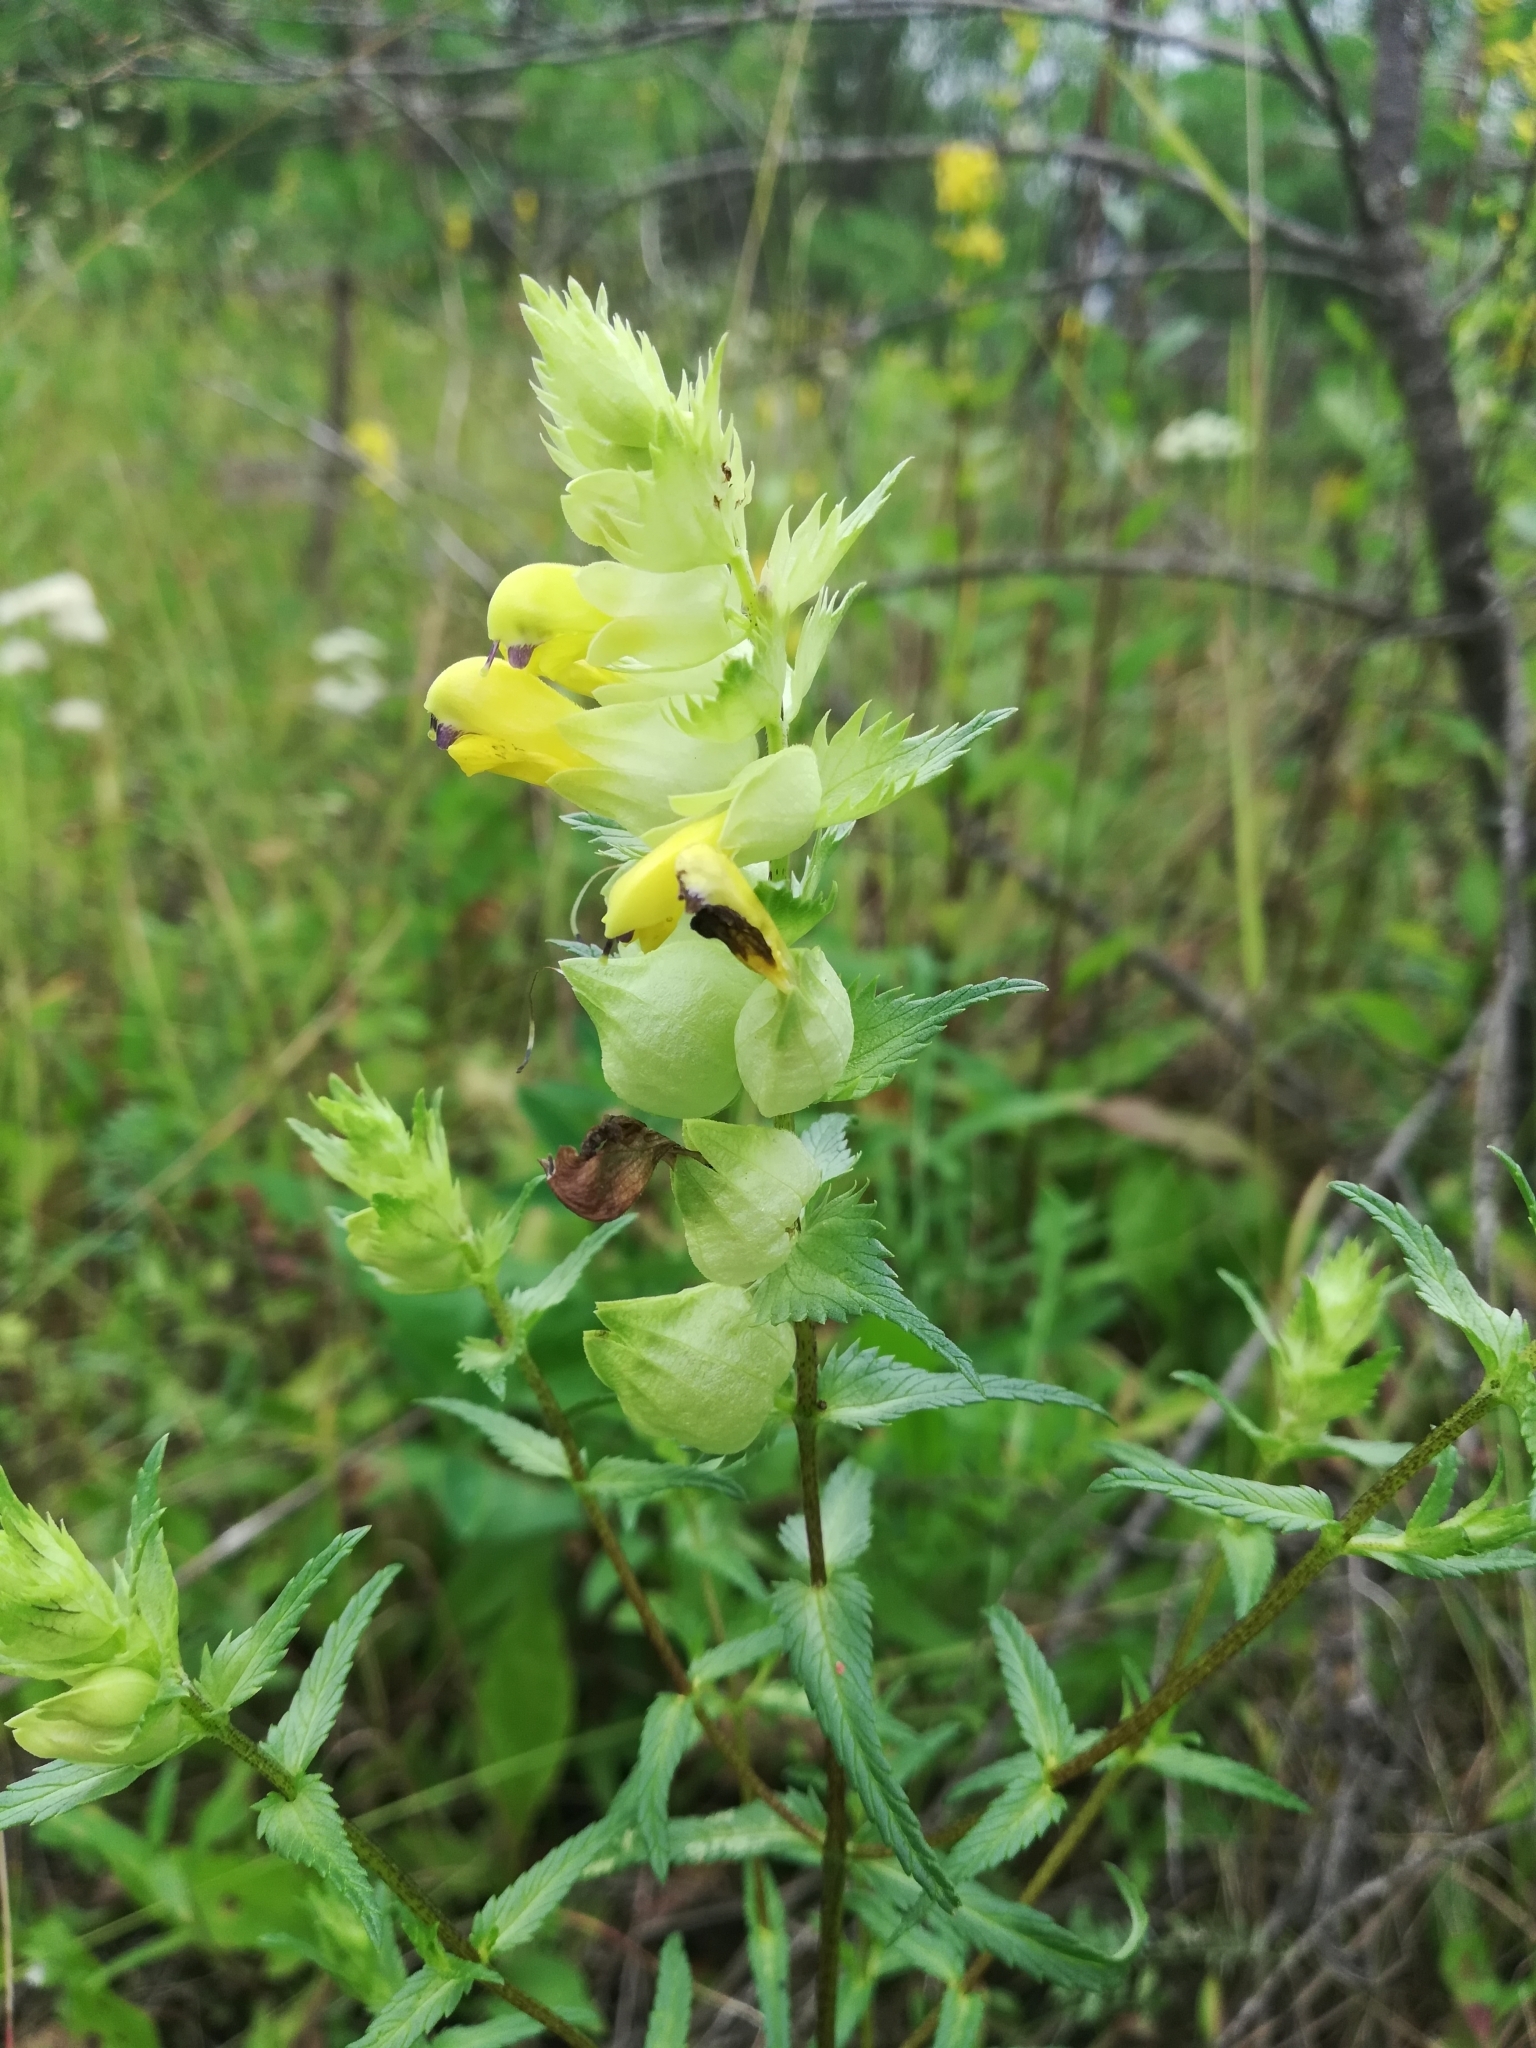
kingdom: Plantae
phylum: Tracheophyta
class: Magnoliopsida
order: Lamiales
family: Orobanchaceae
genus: Rhinanthus
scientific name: Rhinanthus serotinus
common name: Late-flowering yellow rattle
